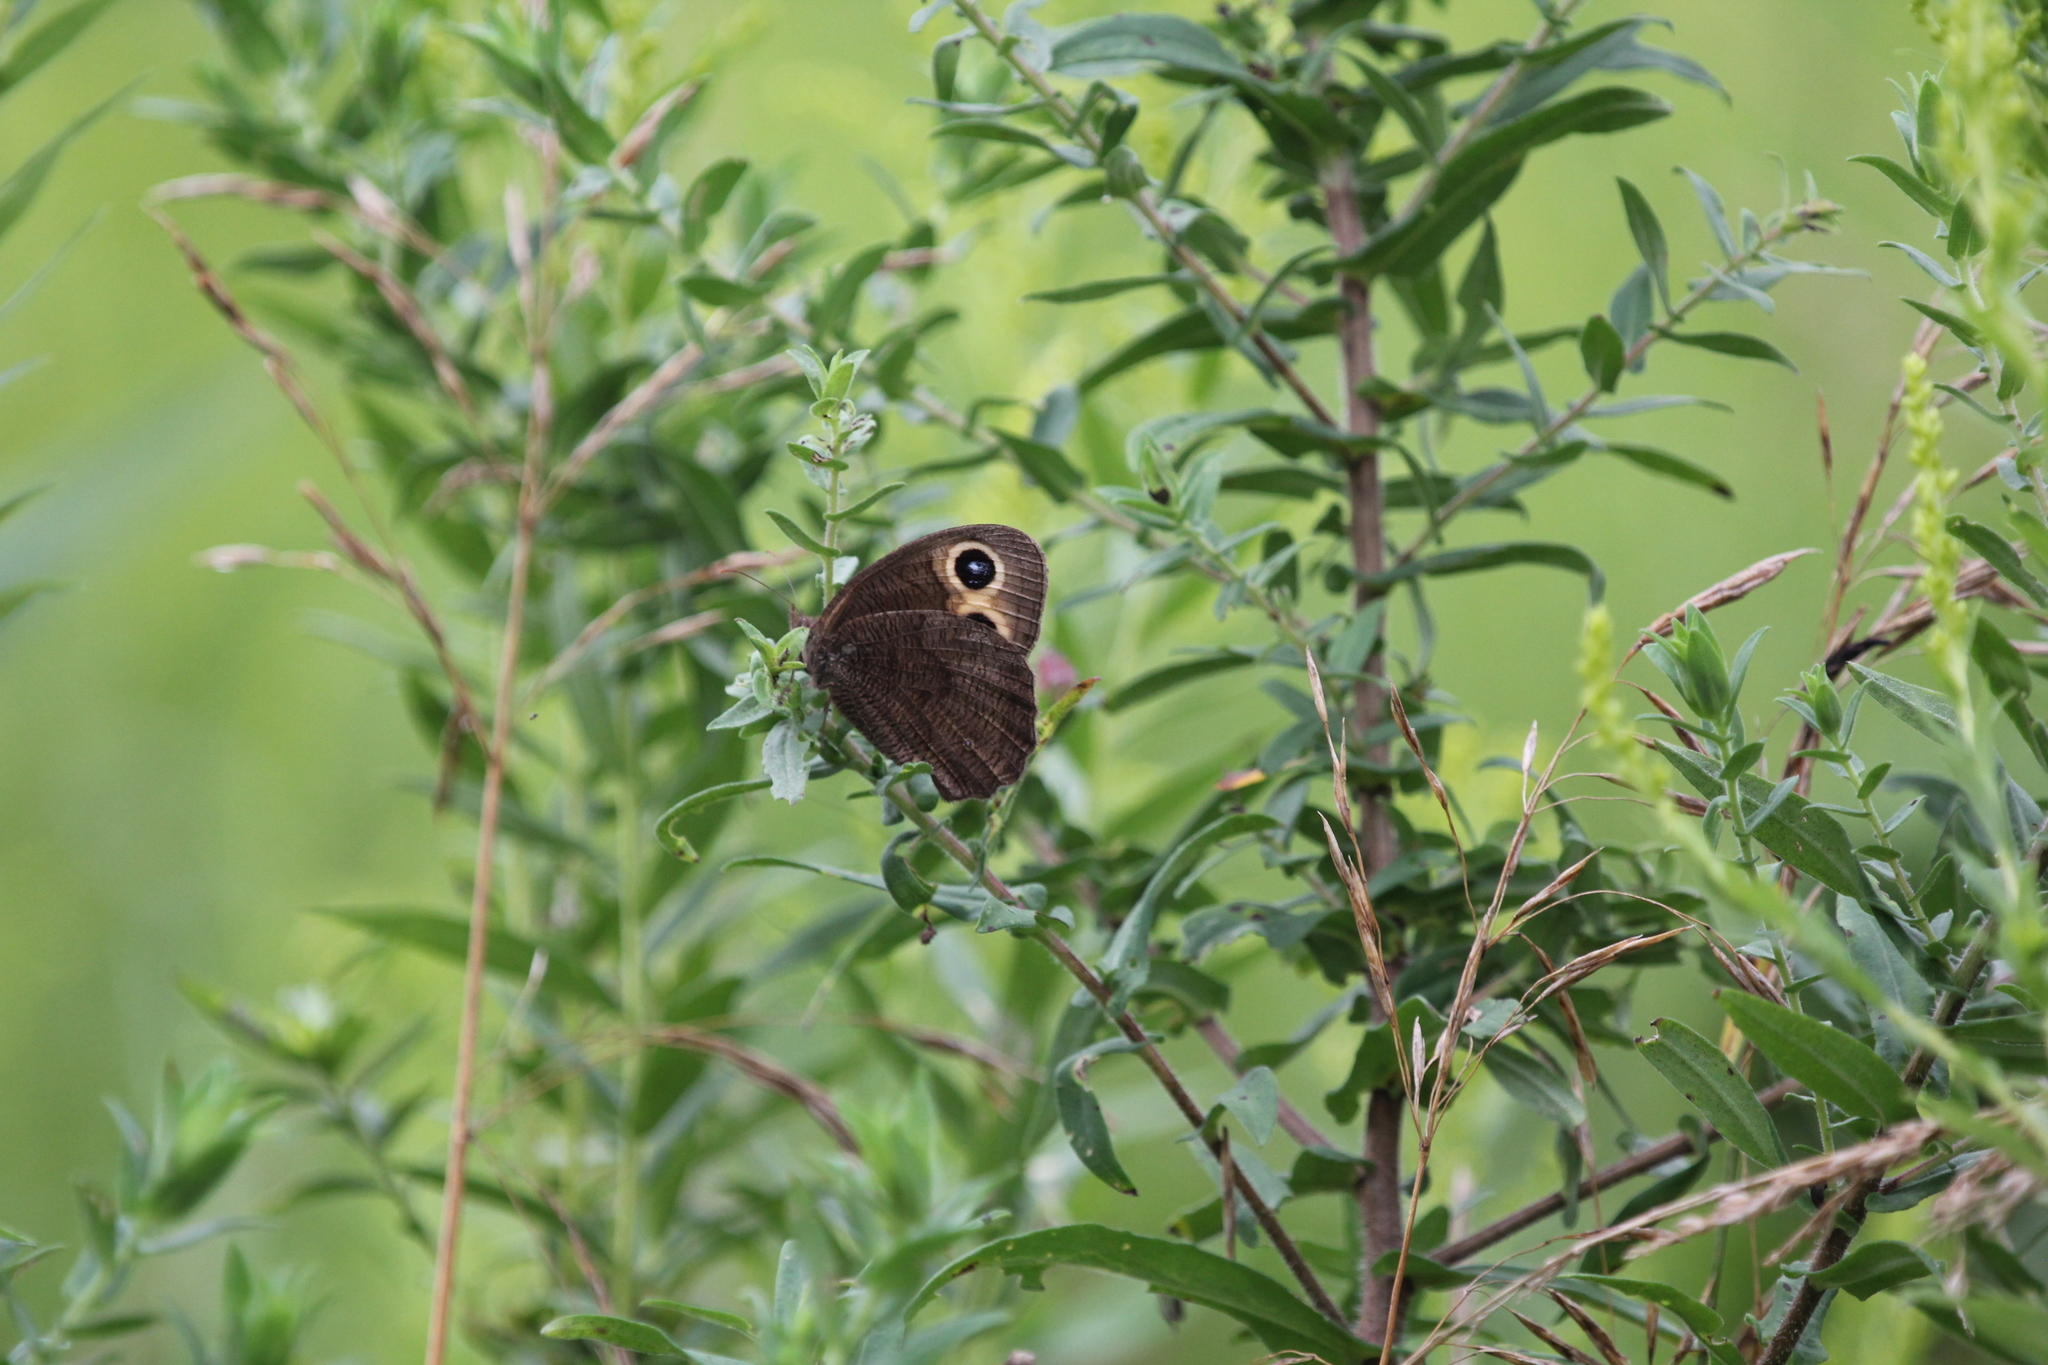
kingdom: Animalia
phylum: Arthropoda
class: Insecta
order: Lepidoptera
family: Nymphalidae
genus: Cercyonis
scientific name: Cercyonis pegala
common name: Common wood-nymph
